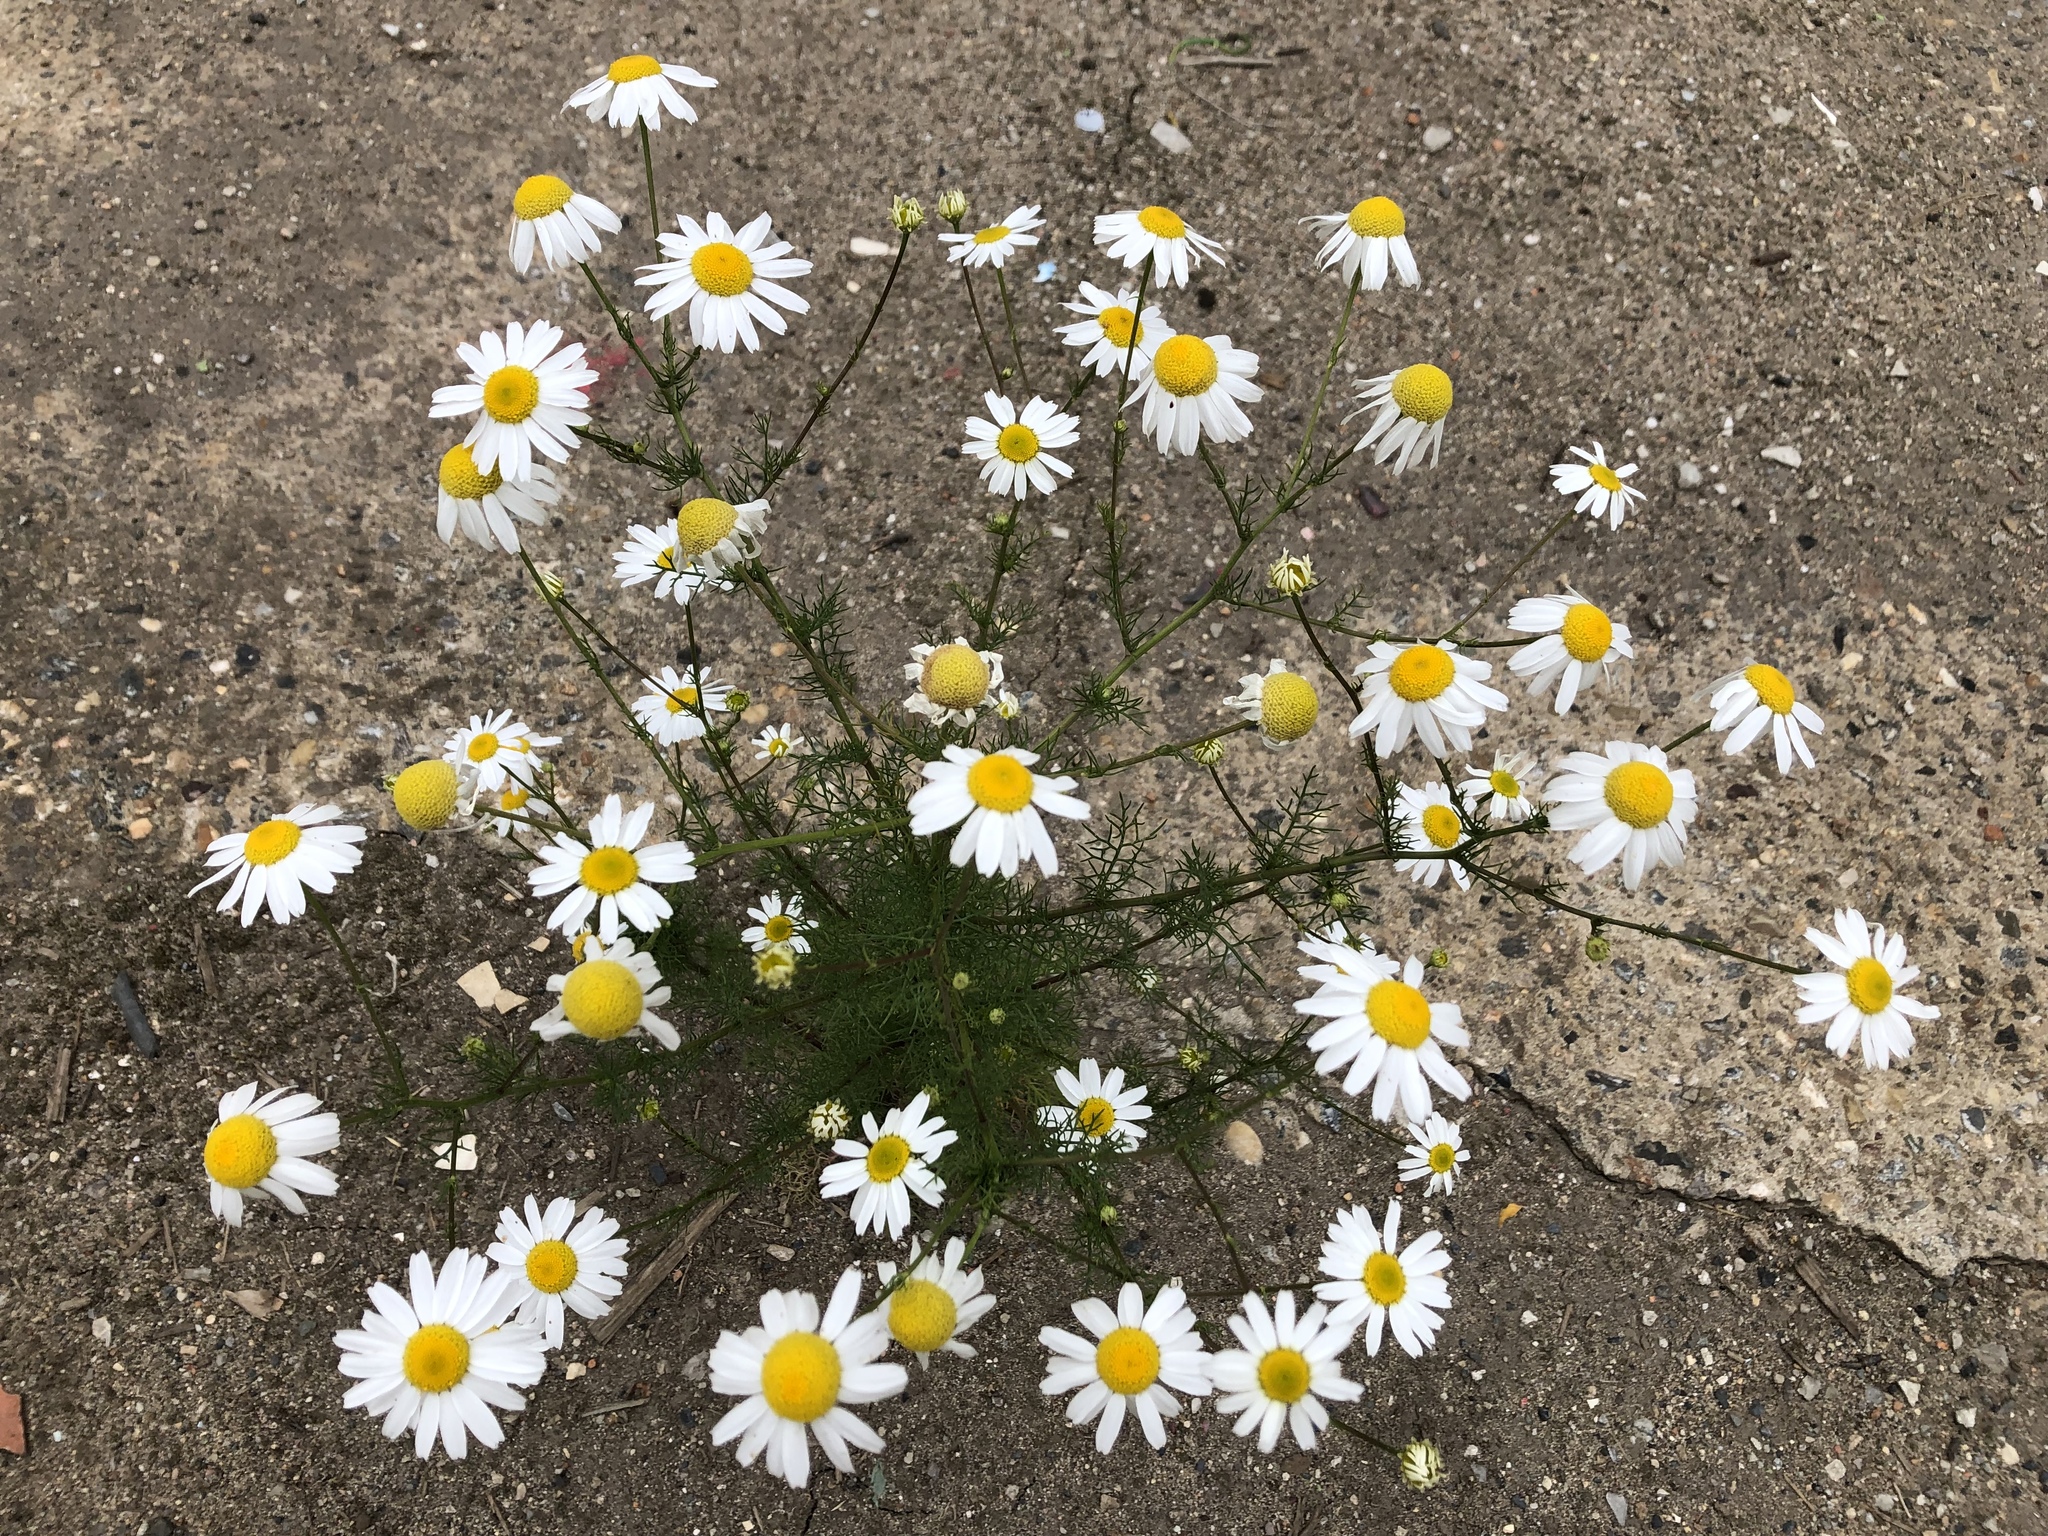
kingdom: Plantae
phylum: Tracheophyta
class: Magnoliopsida
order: Asterales
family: Asteraceae
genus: Tripleurospermum
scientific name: Tripleurospermum inodorum
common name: Scentless mayweed
